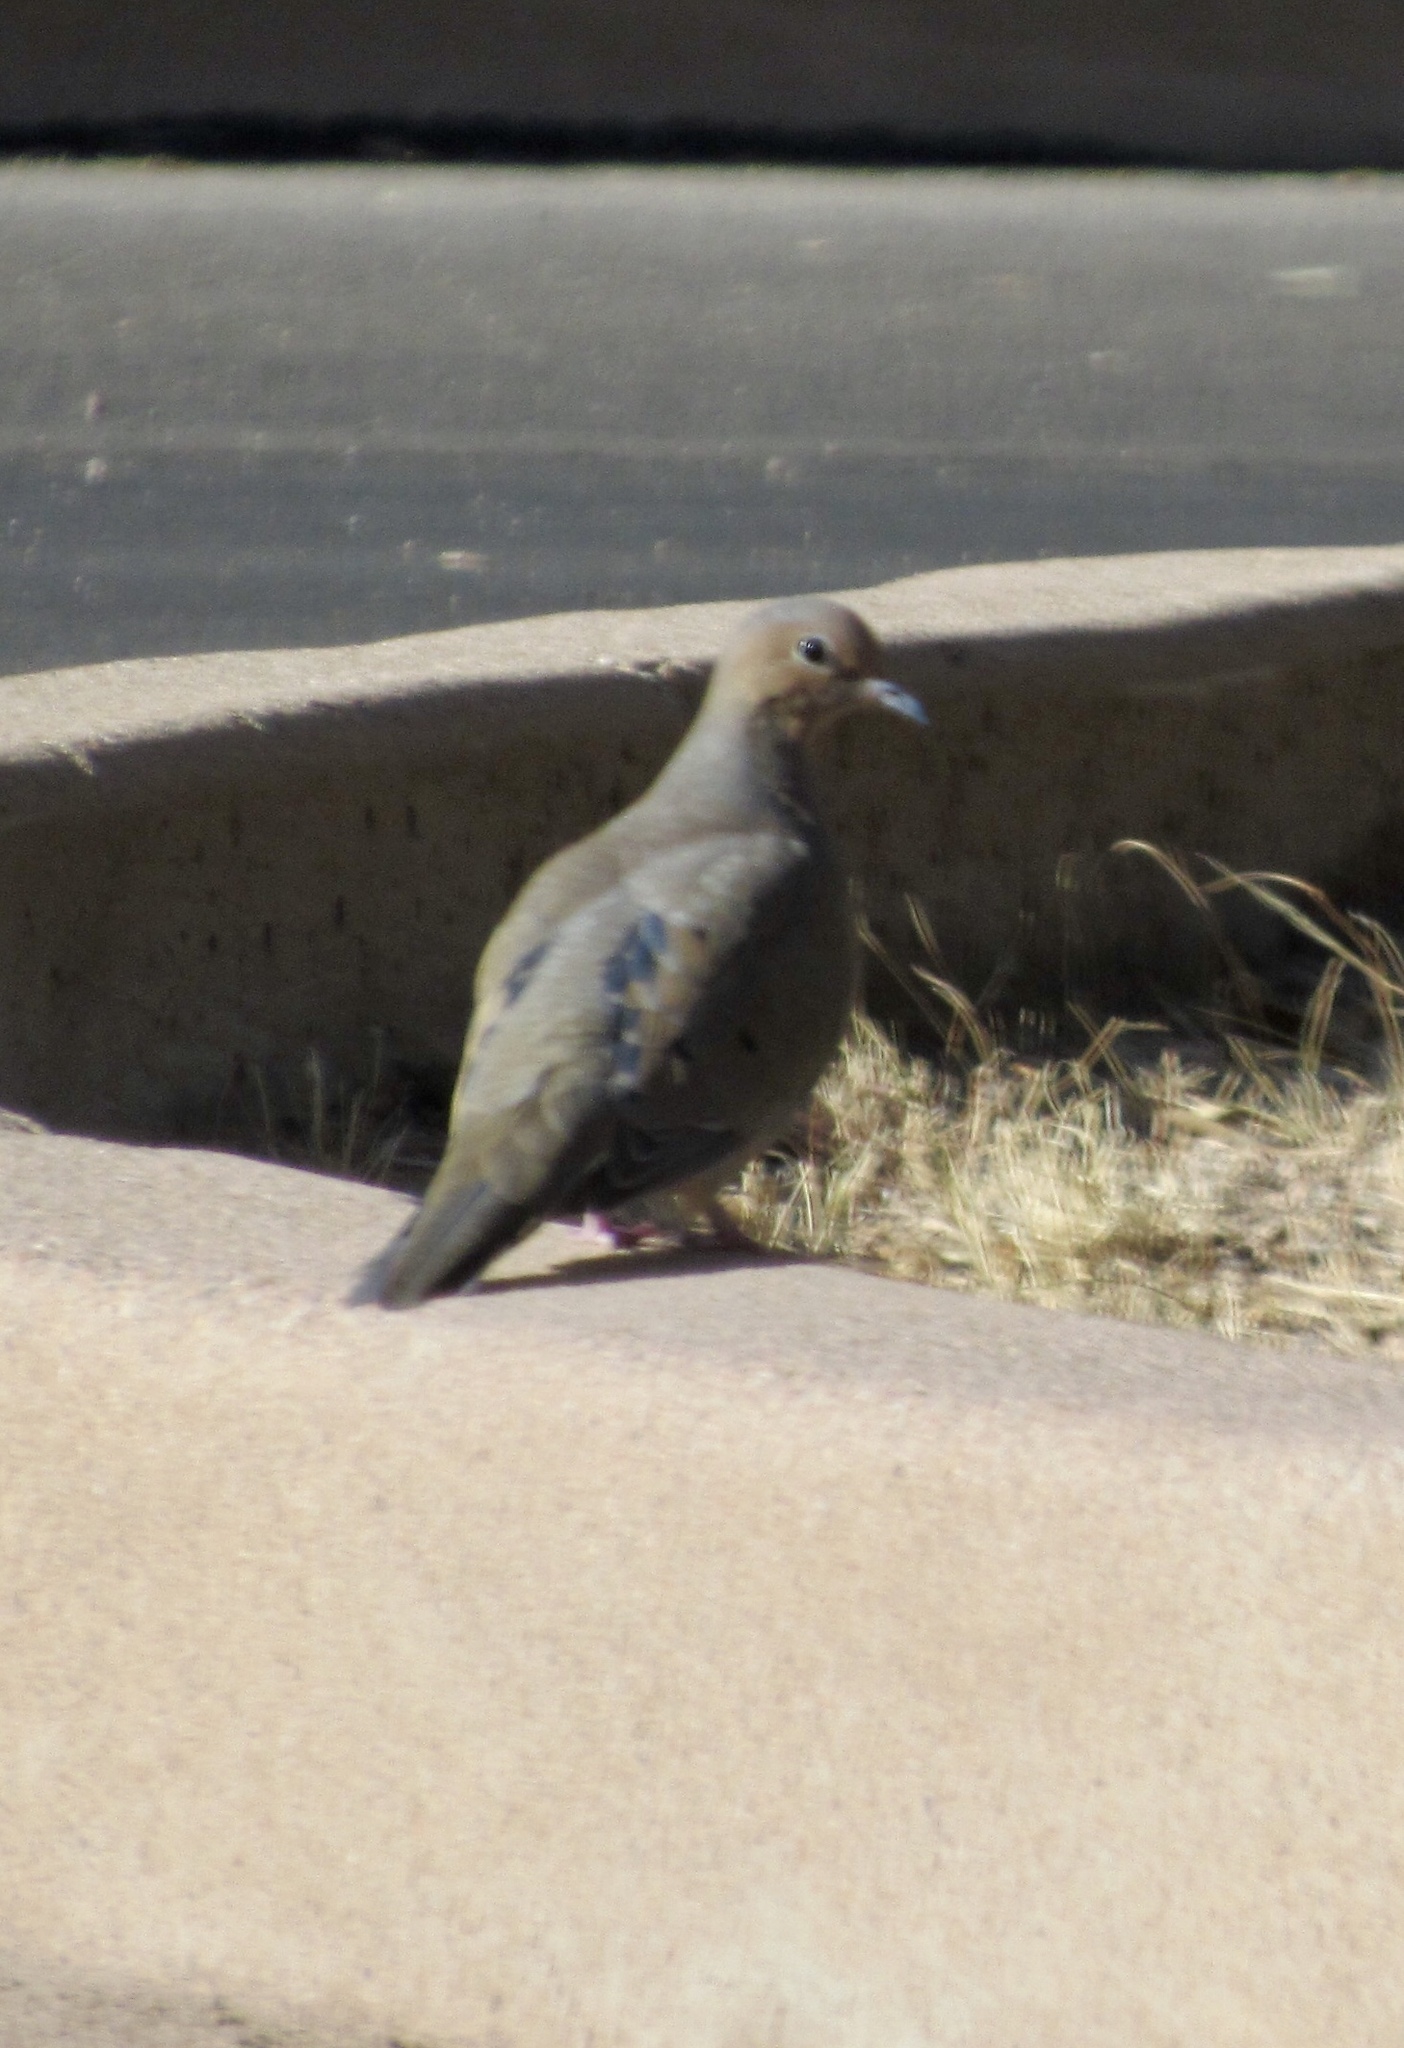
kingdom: Animalia
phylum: Chordata
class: Aves
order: Columbiformes
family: Columbidae
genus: Zenaida
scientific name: Zenaida macroura
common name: Mourning dove
